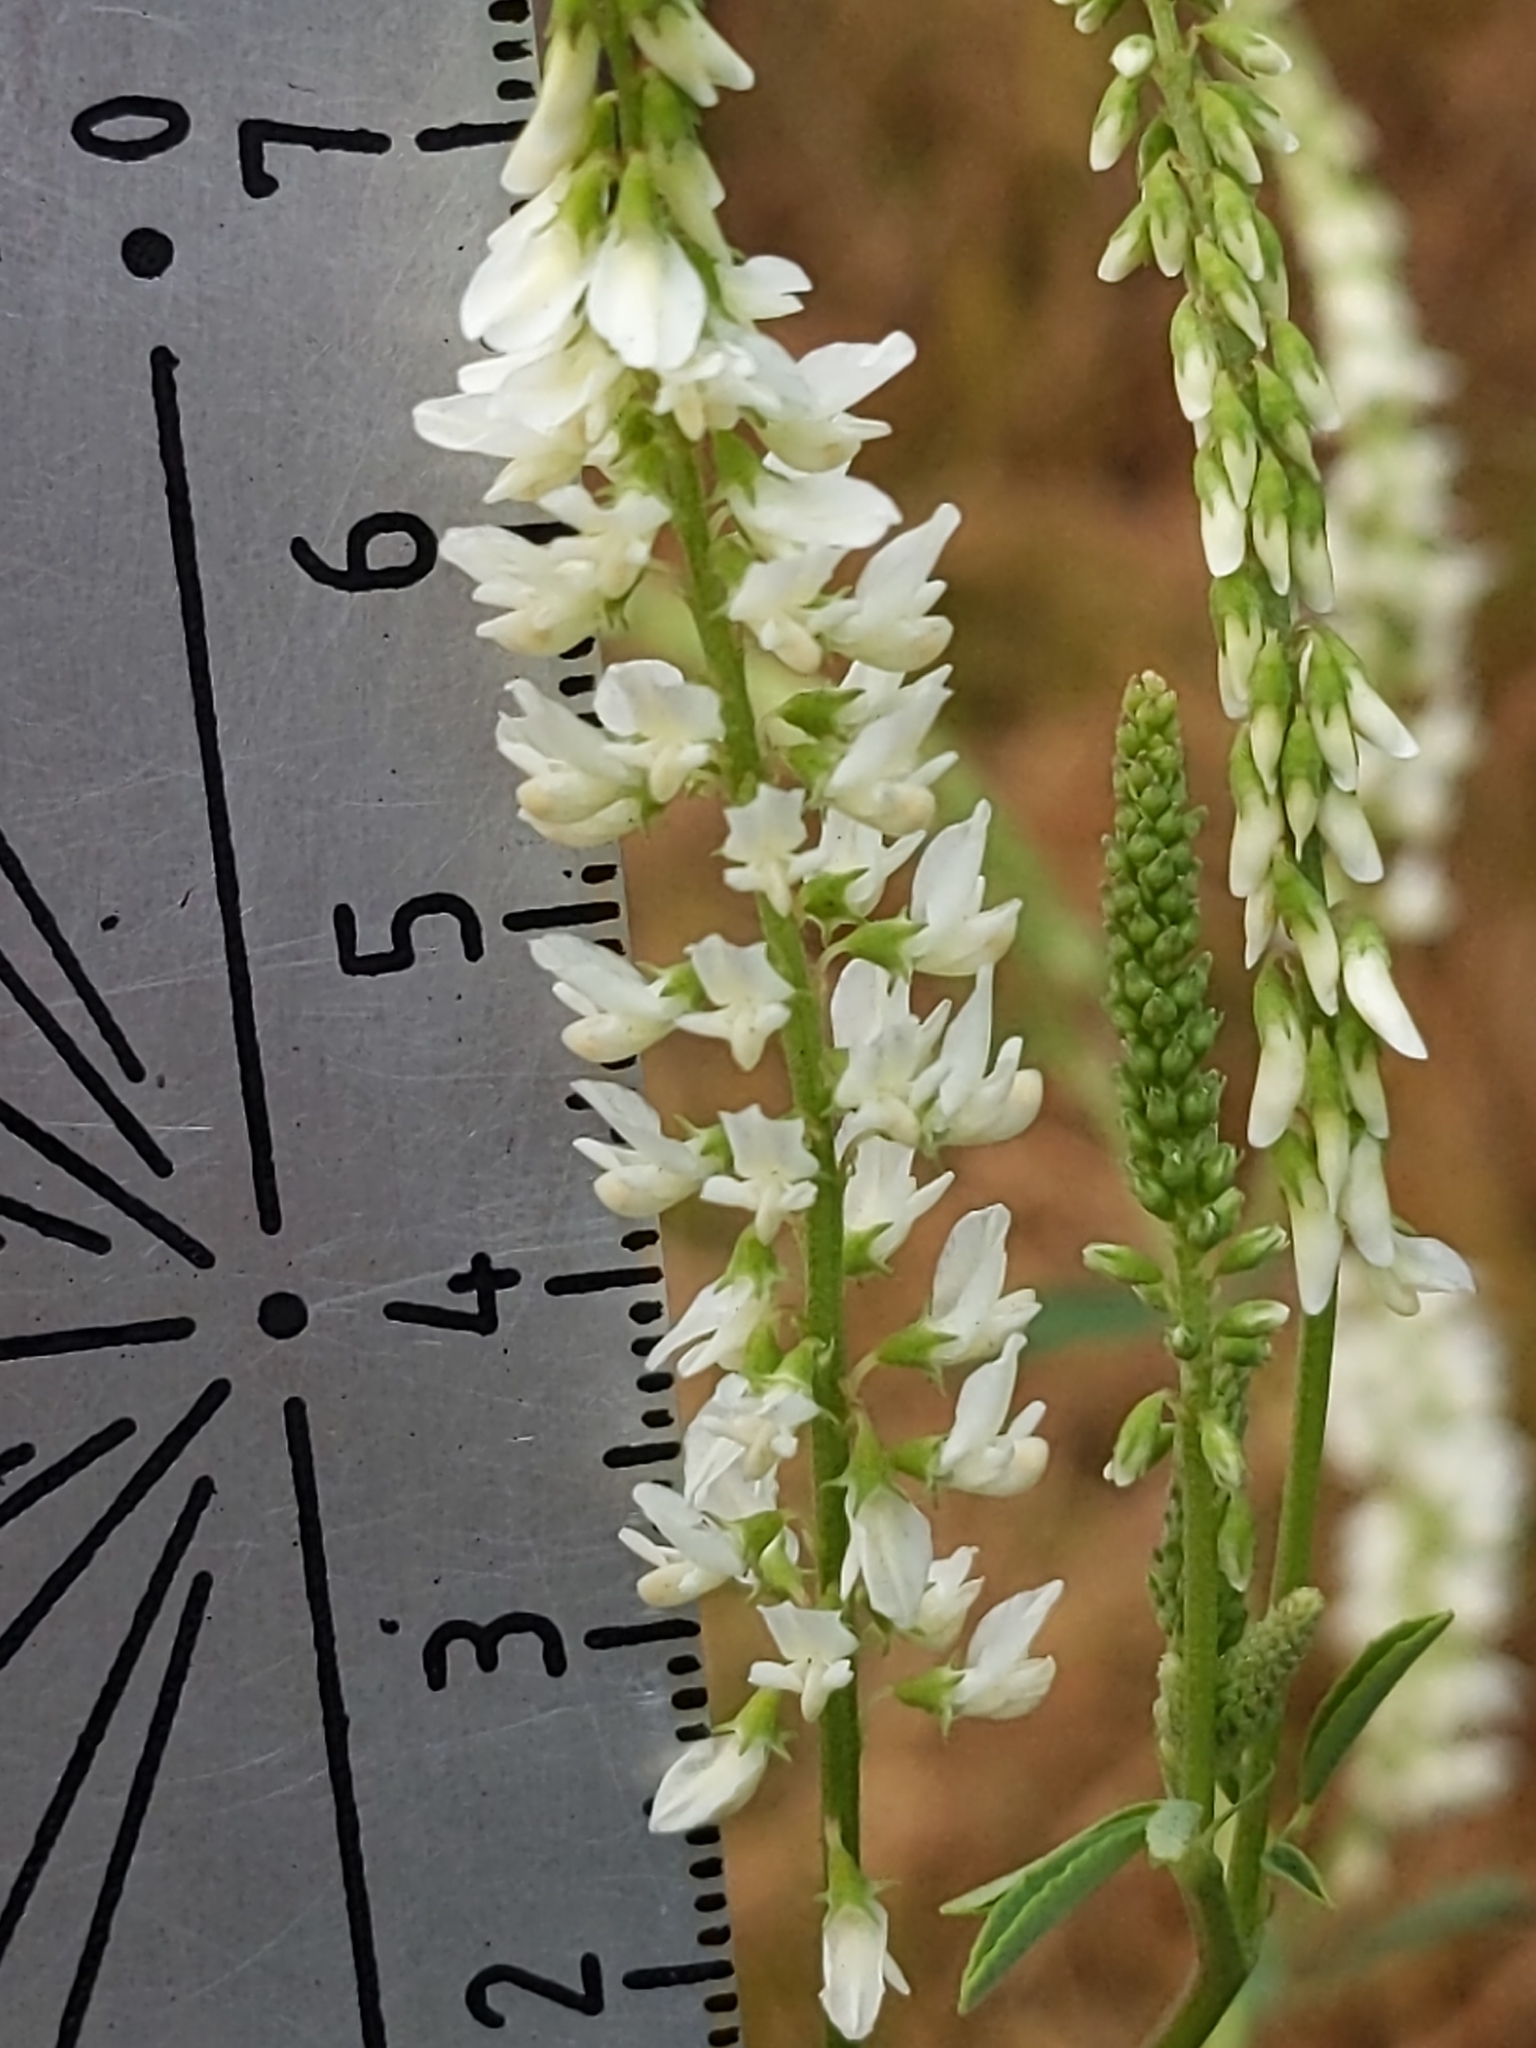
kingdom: Plantae
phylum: Tracheophyta
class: Magnoliopsida
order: Fabales
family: Fabaceae
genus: Melilotus
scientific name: Melilotus albus
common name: White melilot
